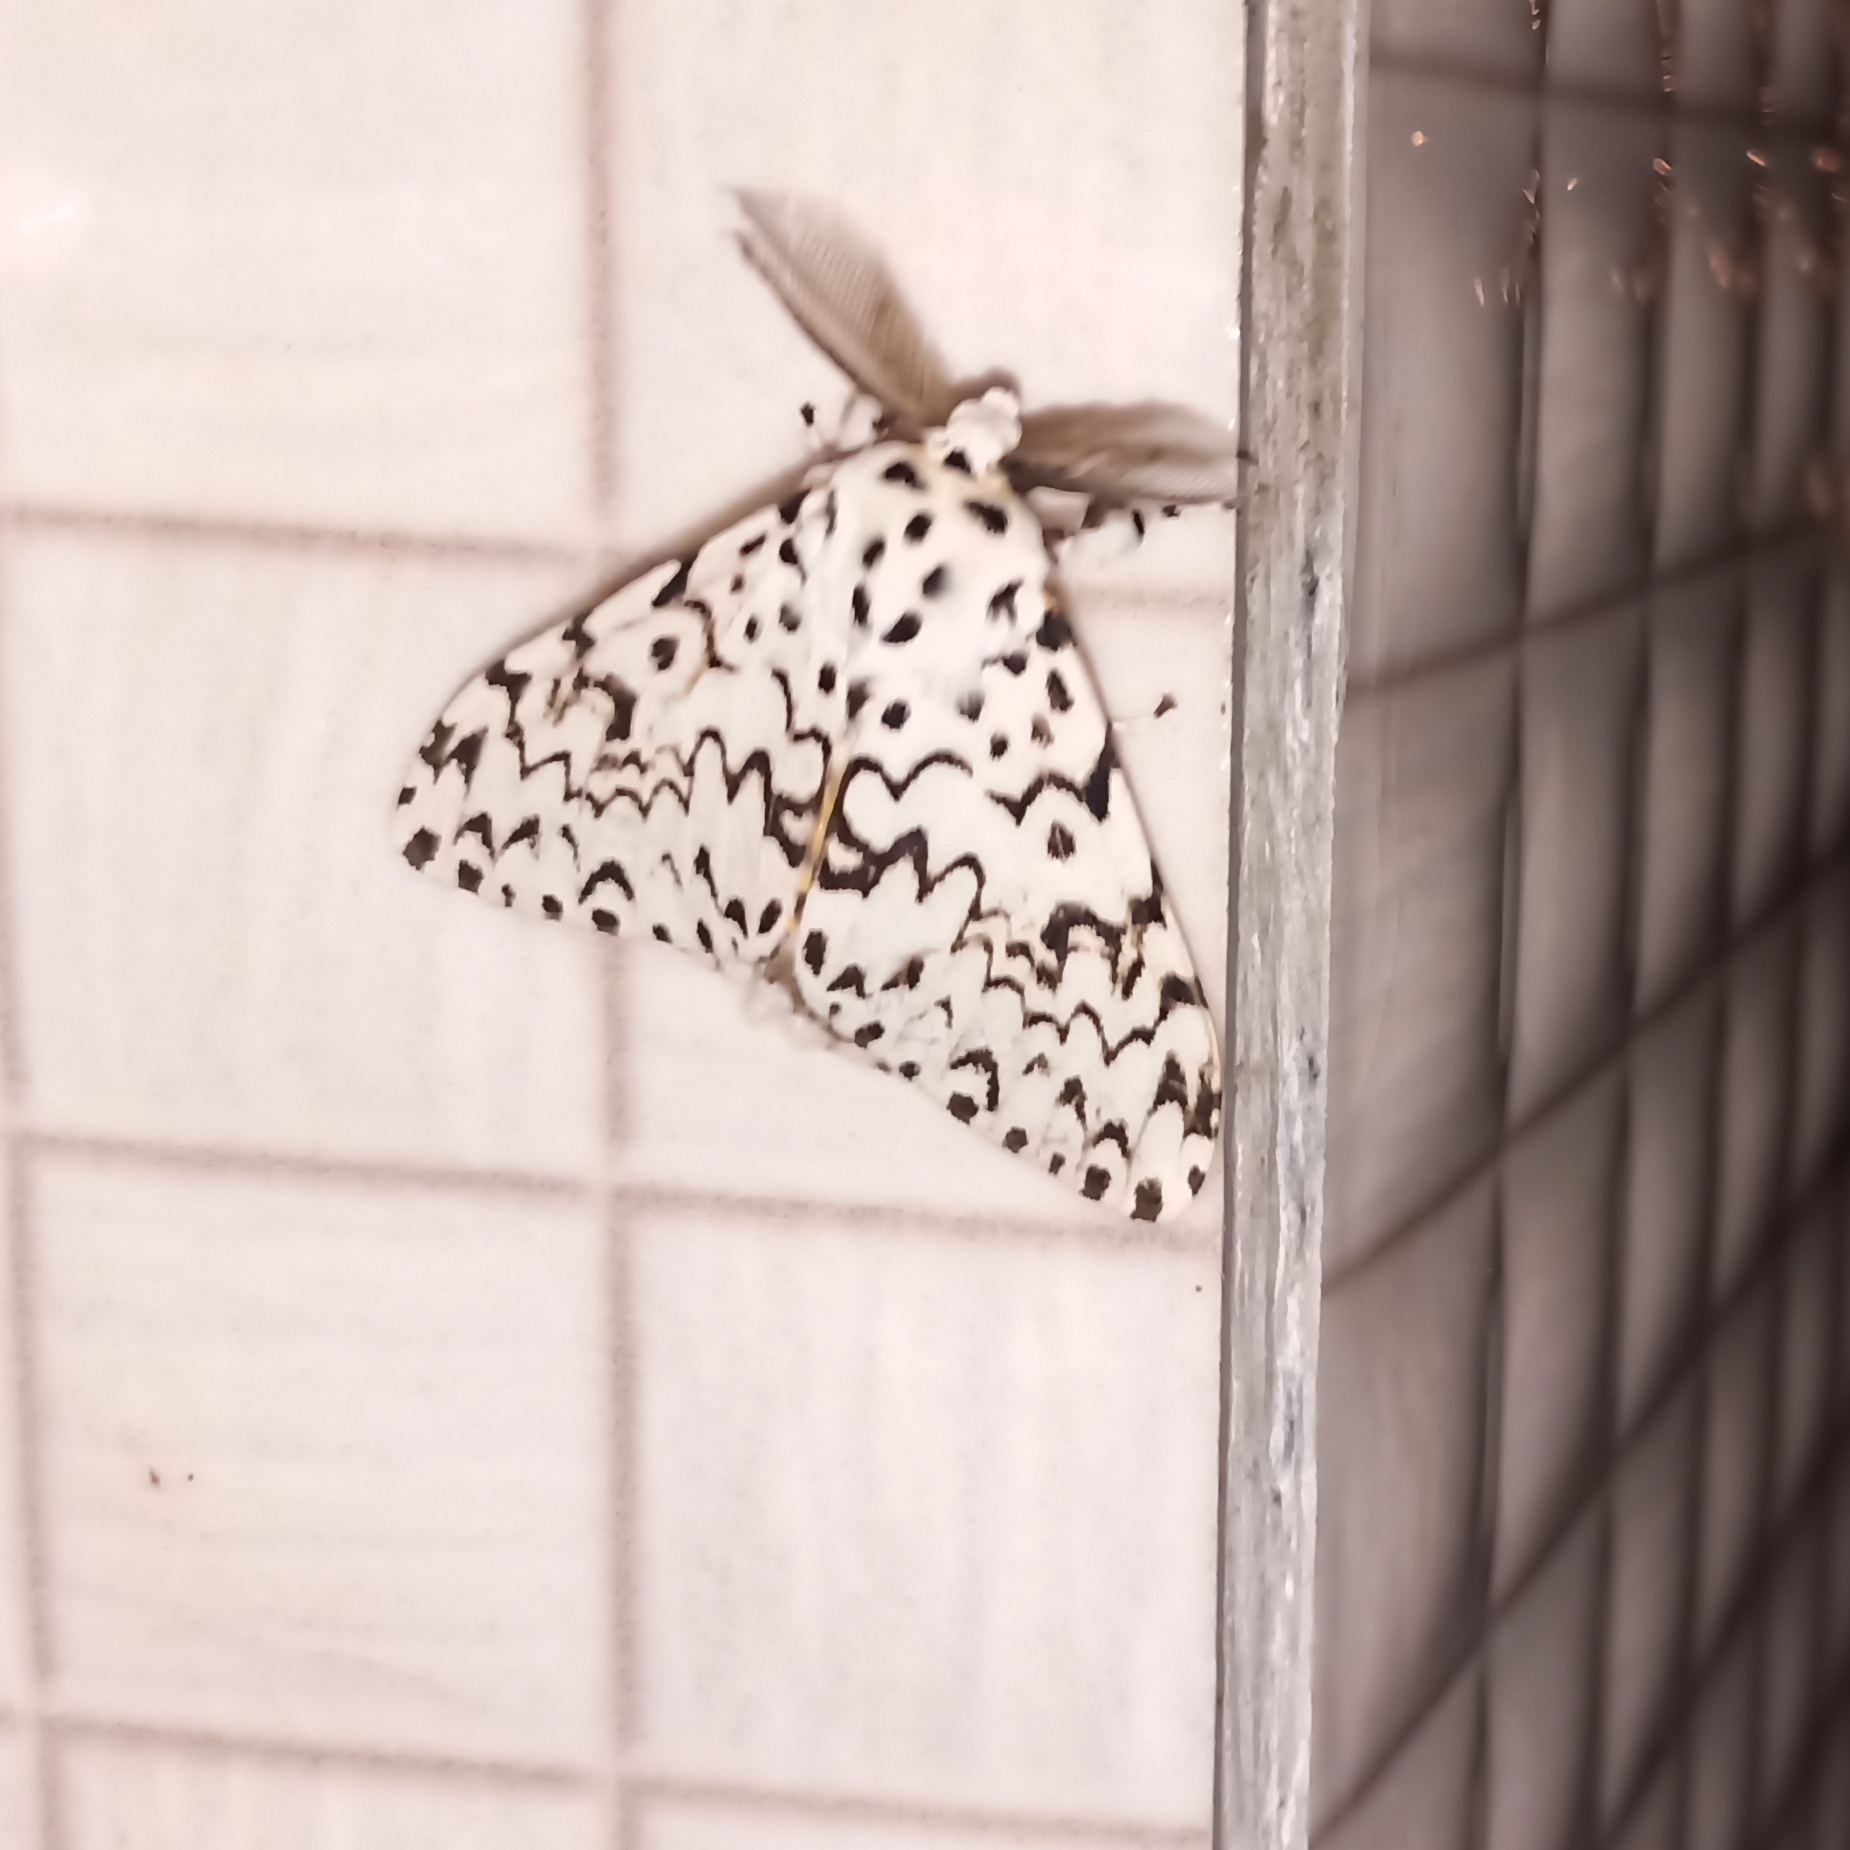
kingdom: Animalia
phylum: Arthropoda
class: Insecta
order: Lepidoptera
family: Erebidae
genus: Lymantria
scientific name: Lymantria monacha
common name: Black arches
